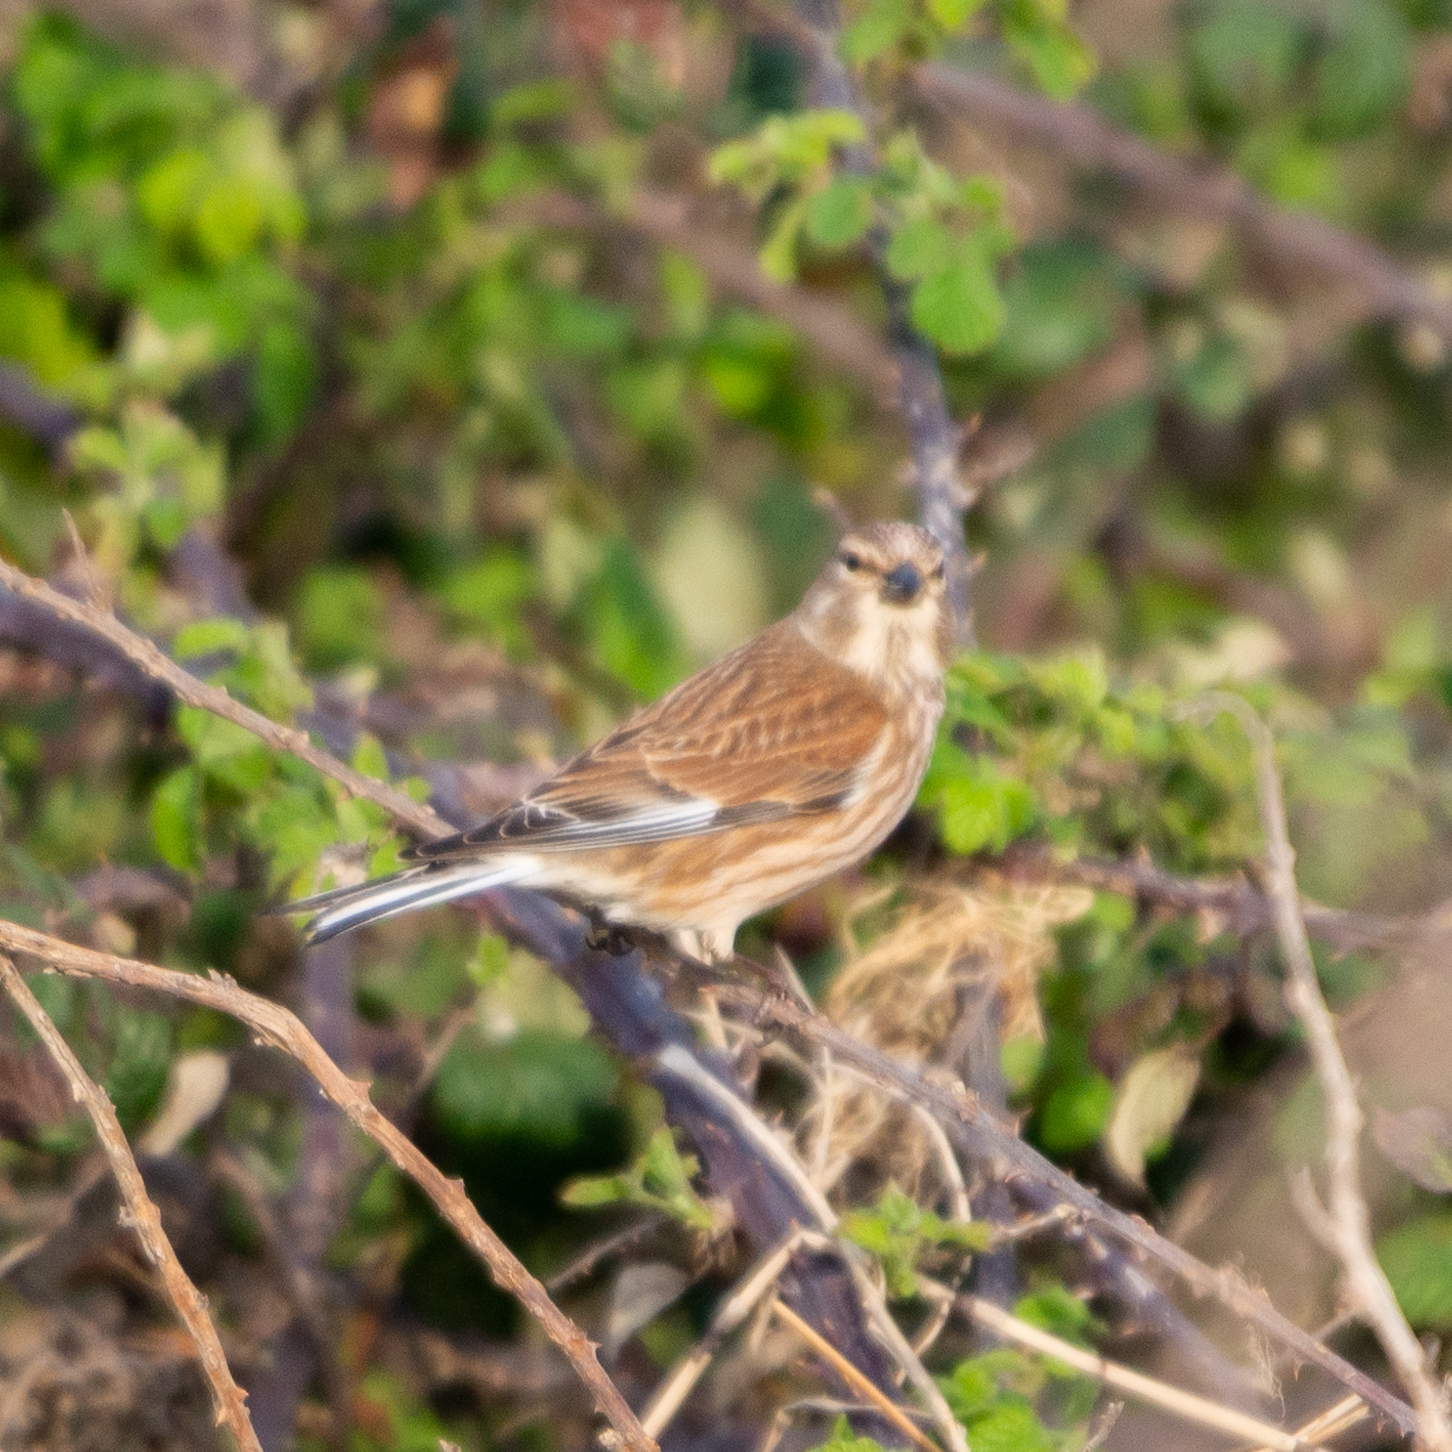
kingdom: Animalia
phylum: Chordata
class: Aves
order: Passeriformes
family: Fringillidae
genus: Linaria
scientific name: Linaria cannabina
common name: Common linnet
